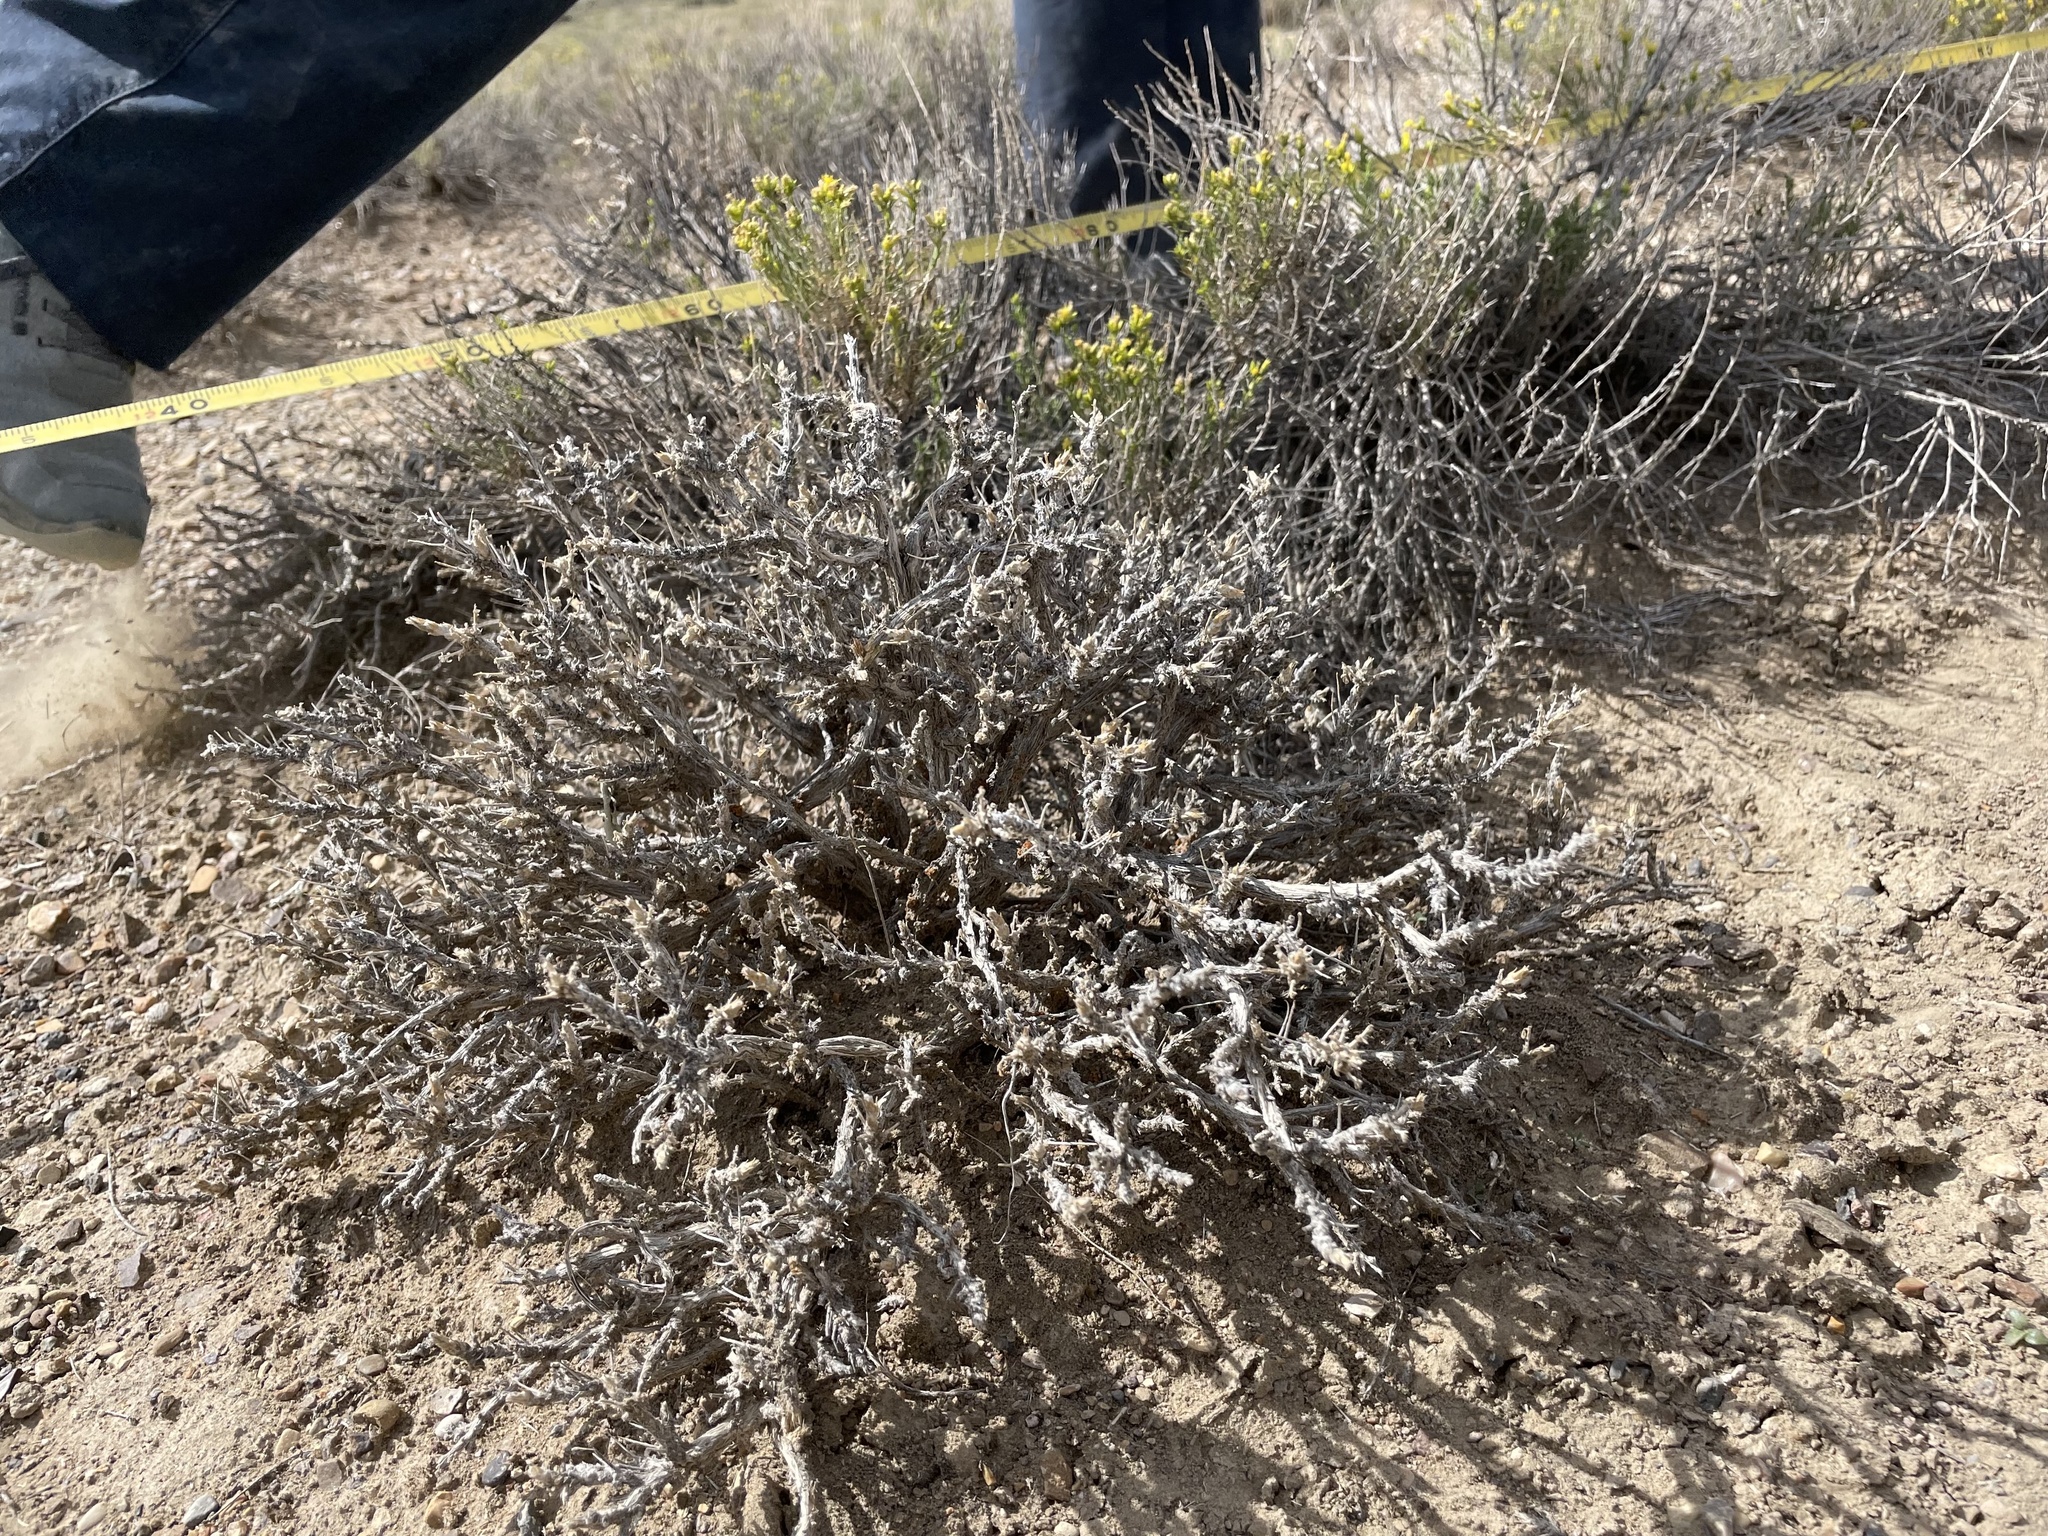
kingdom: Plantae
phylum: Tracheophyta
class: Magnoliopsida
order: Asterales
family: Asteraceae
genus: Artemisia
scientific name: Artemisia spinescens
